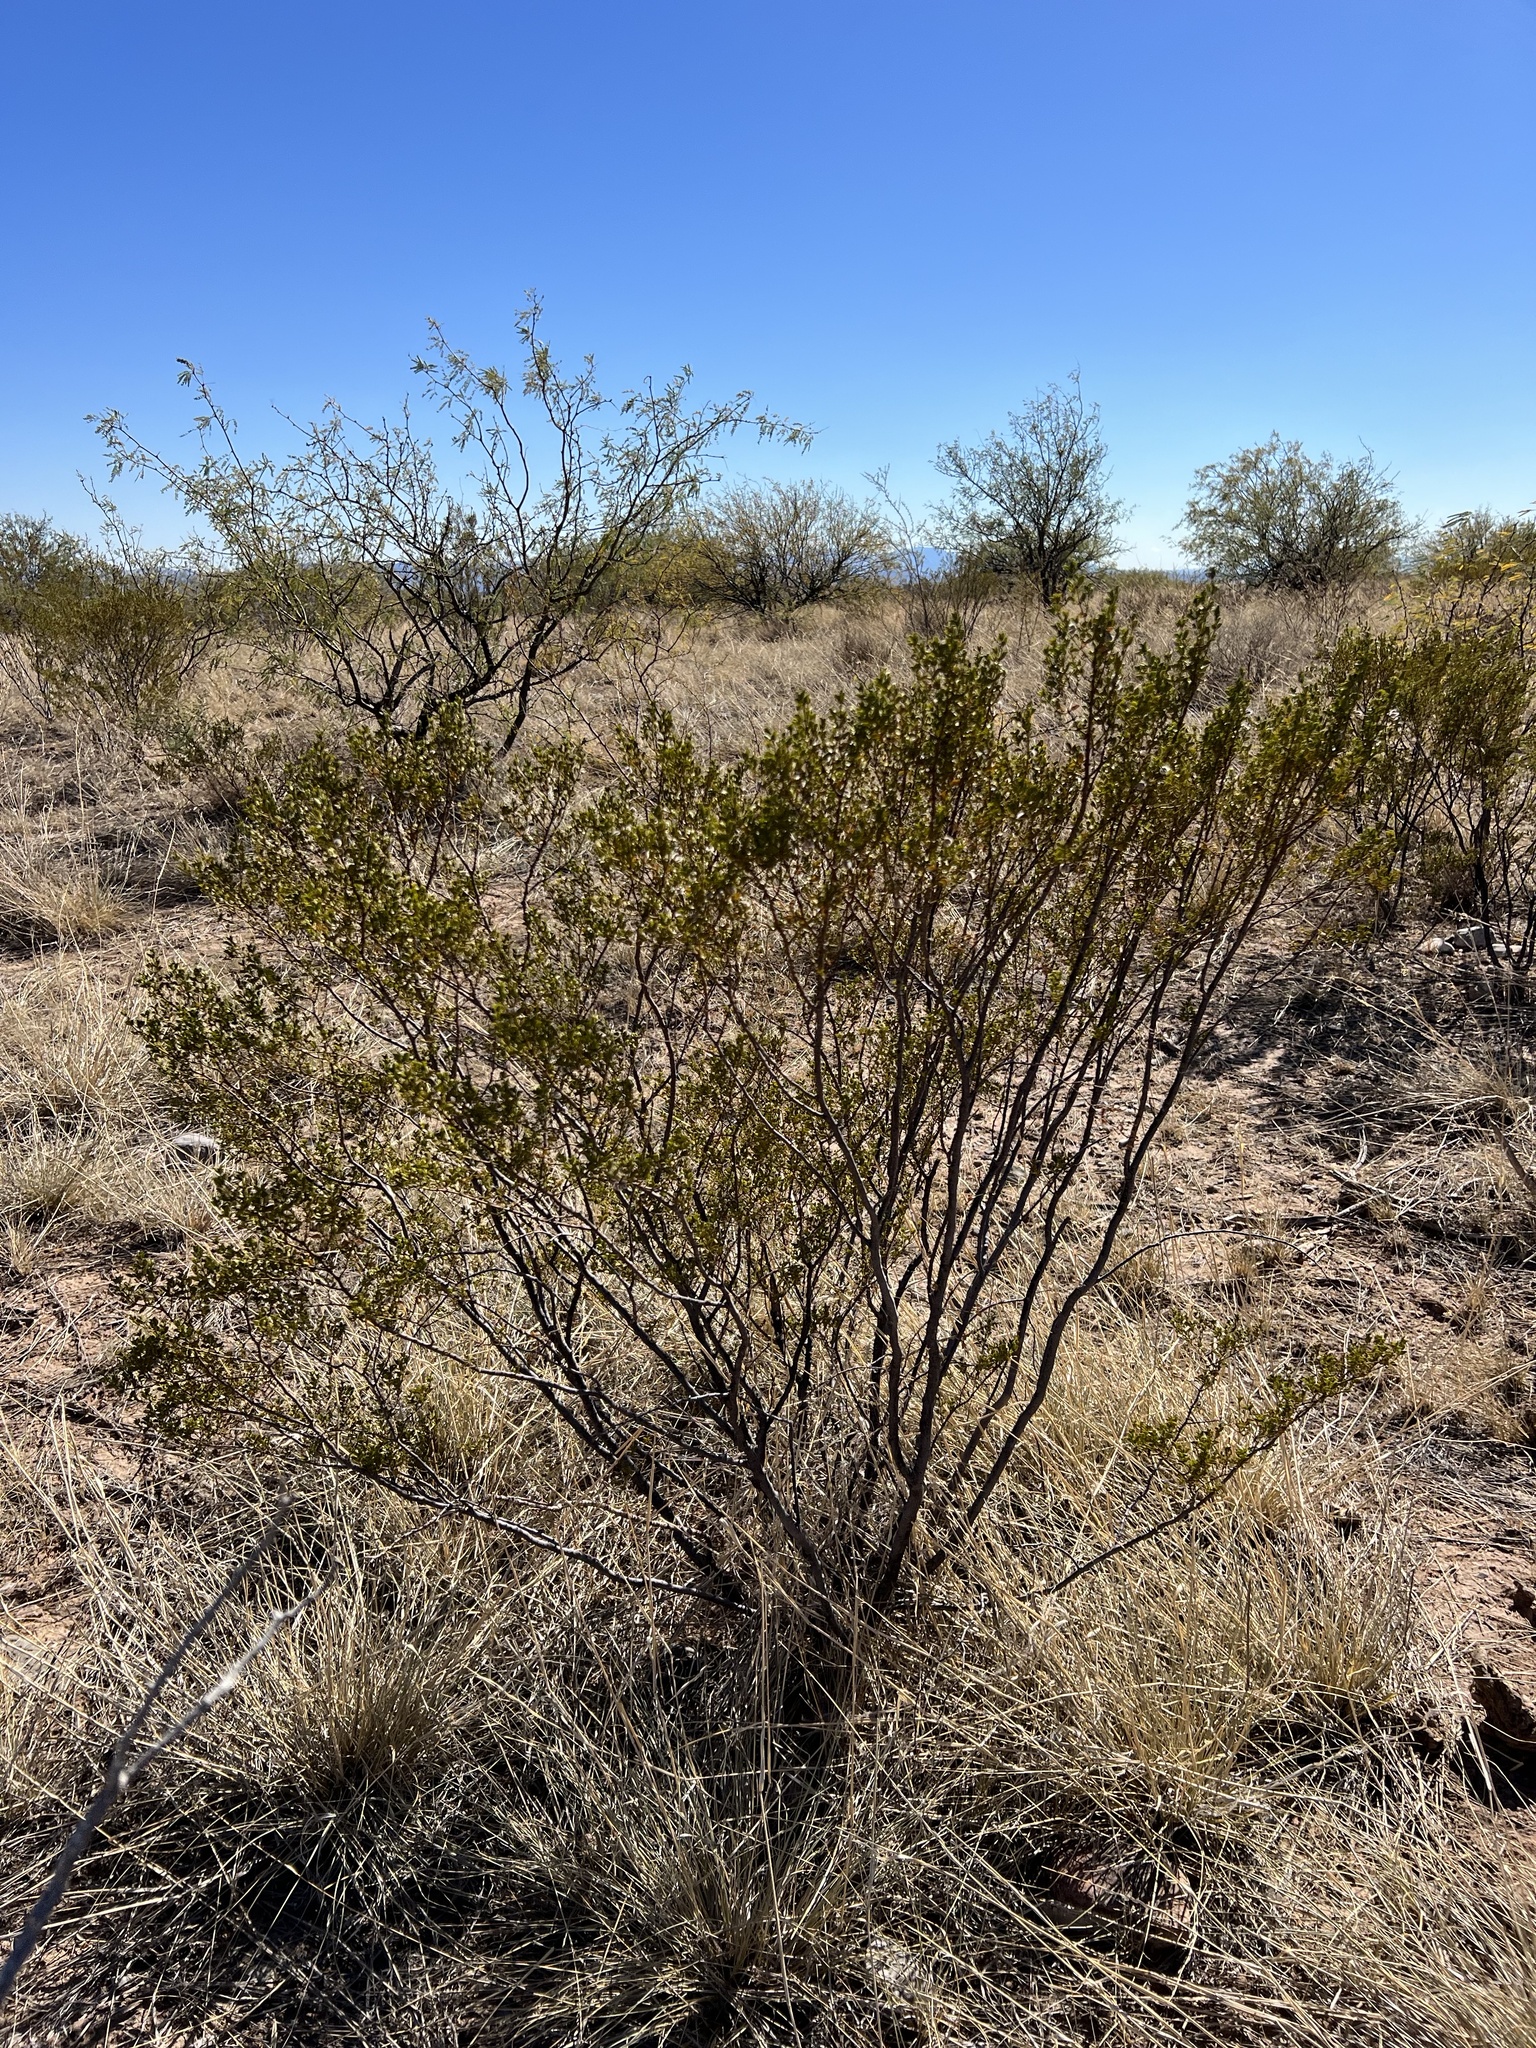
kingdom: Plantae
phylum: Tracheophyta
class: Magnoliopsida
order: Zygophyllales
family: Zygophyllaceae
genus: Larrea
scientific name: Larrea tridentata
